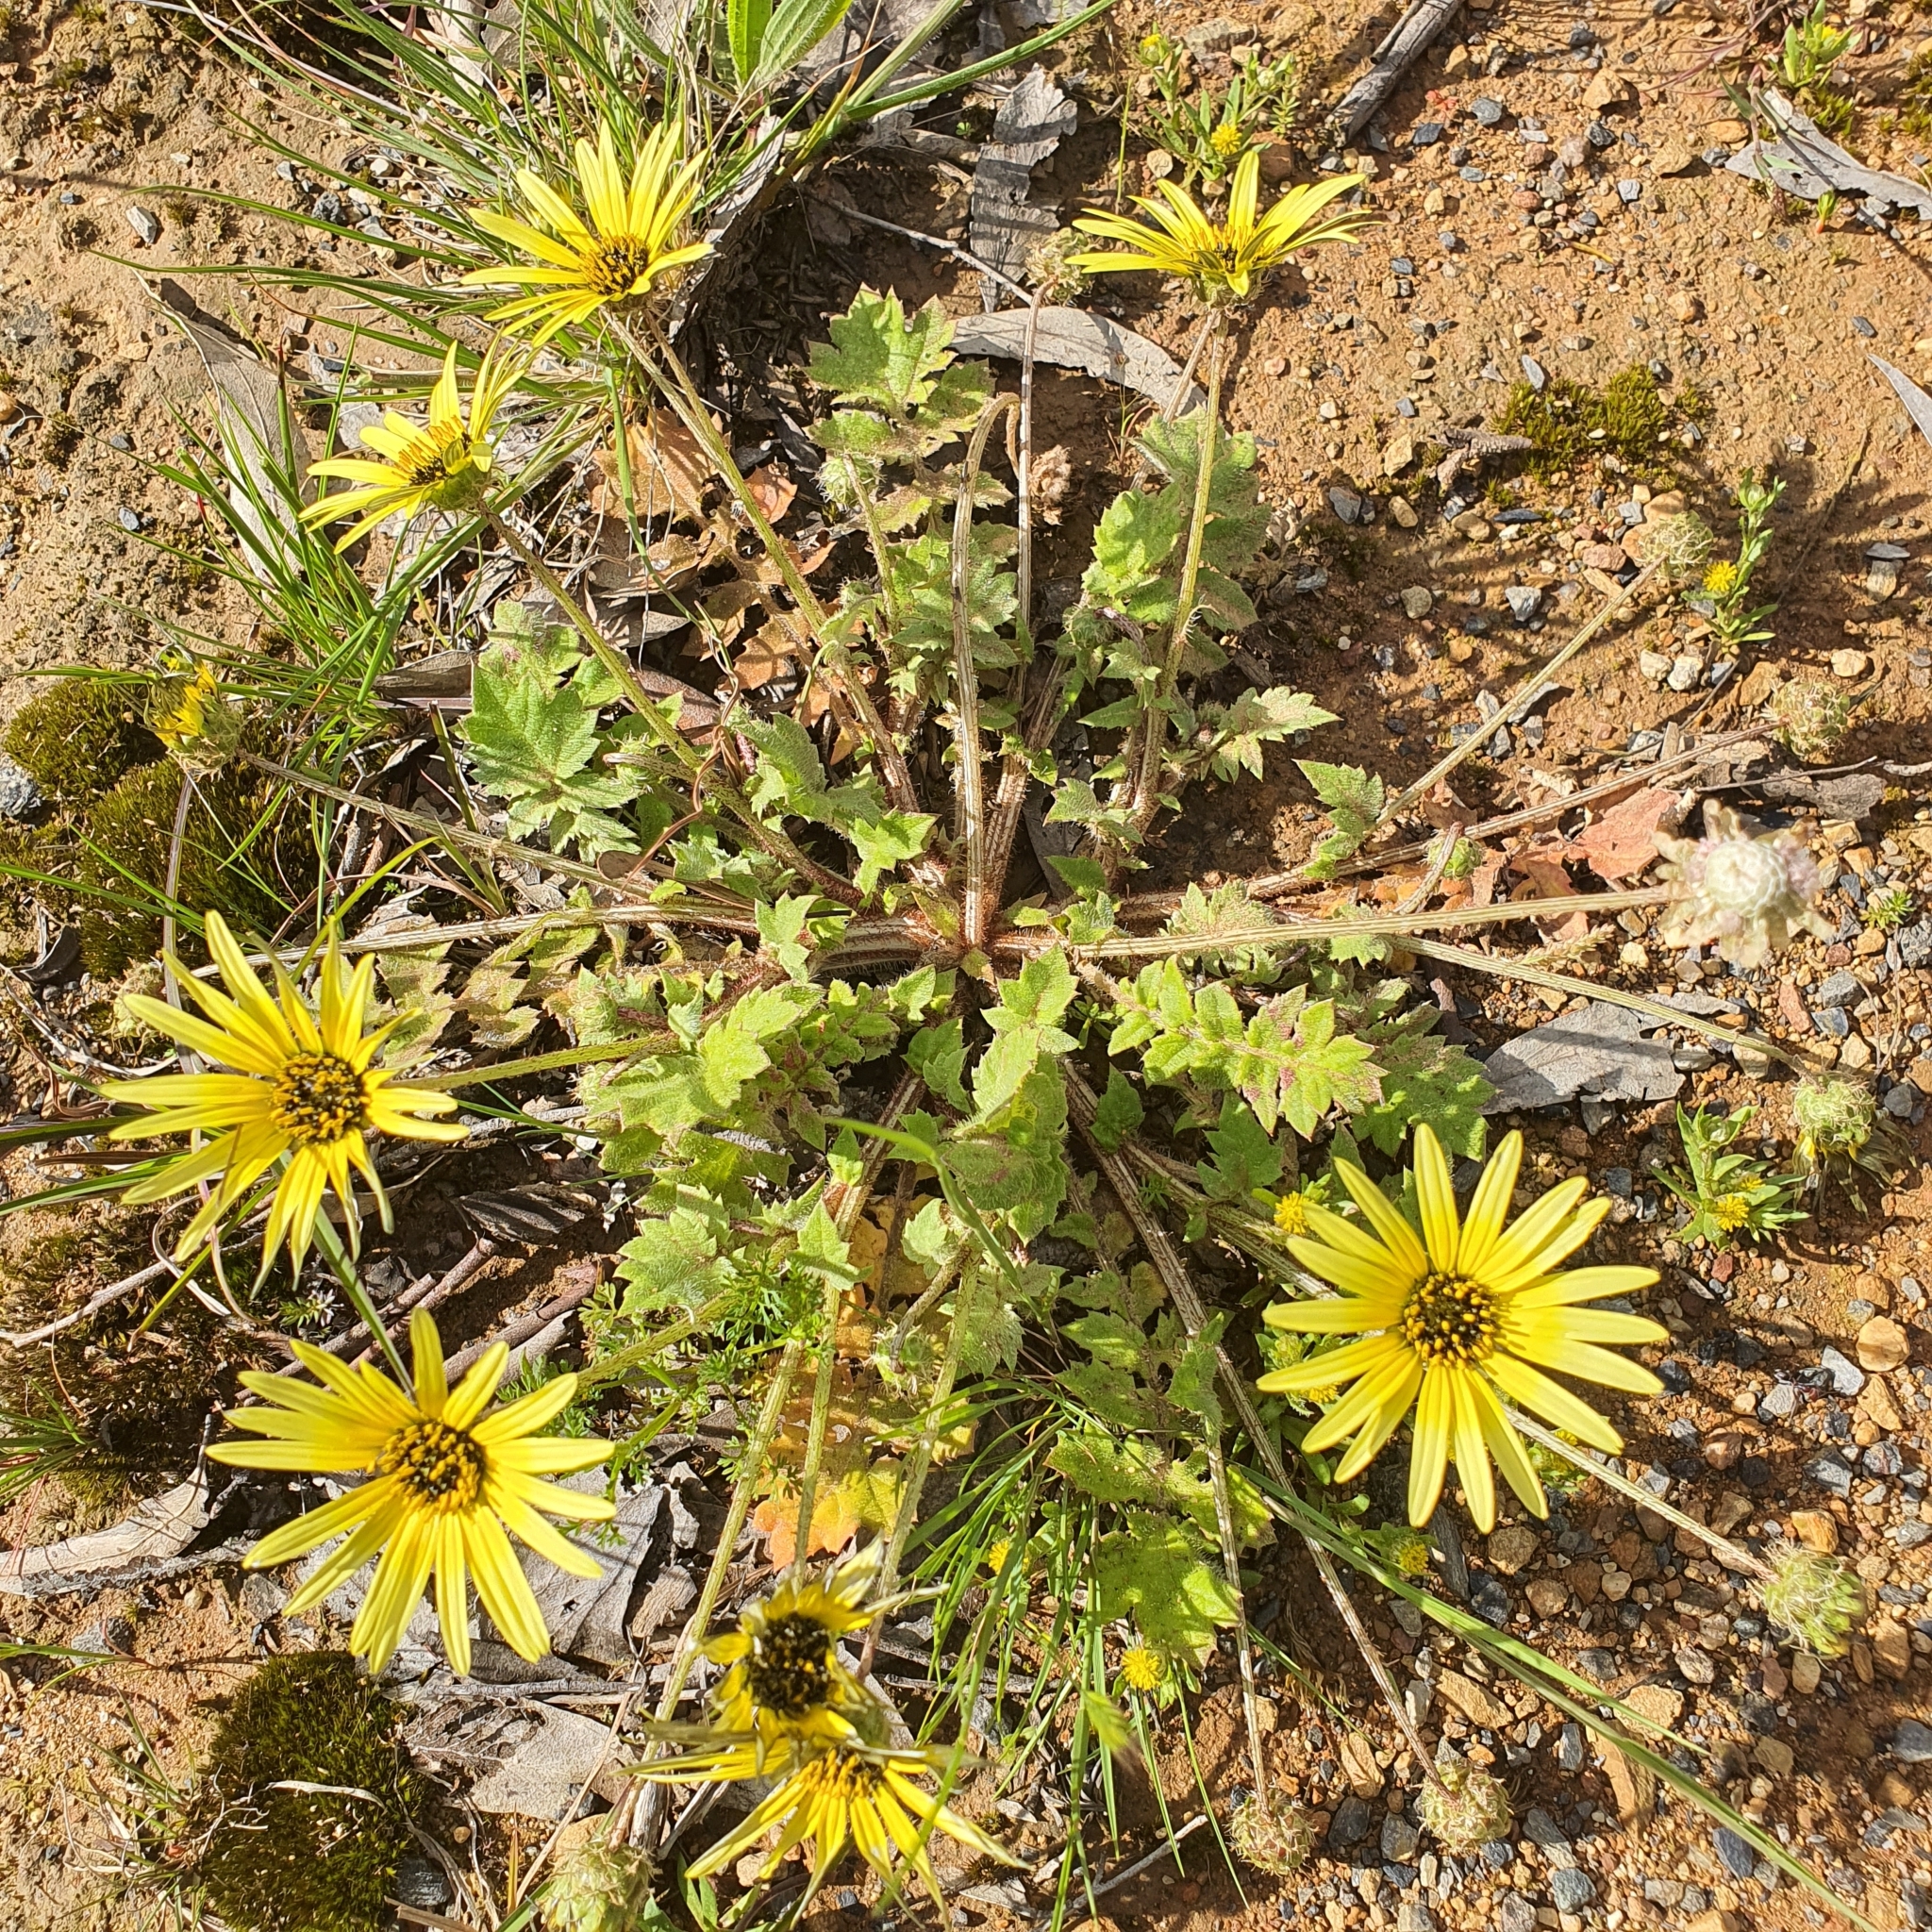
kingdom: Plantae
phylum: Tracheophyta
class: Magnoliopsida
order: Asterales
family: Asteraceae
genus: Arctotheca
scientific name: Arctotheca calendula
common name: Capeweed
